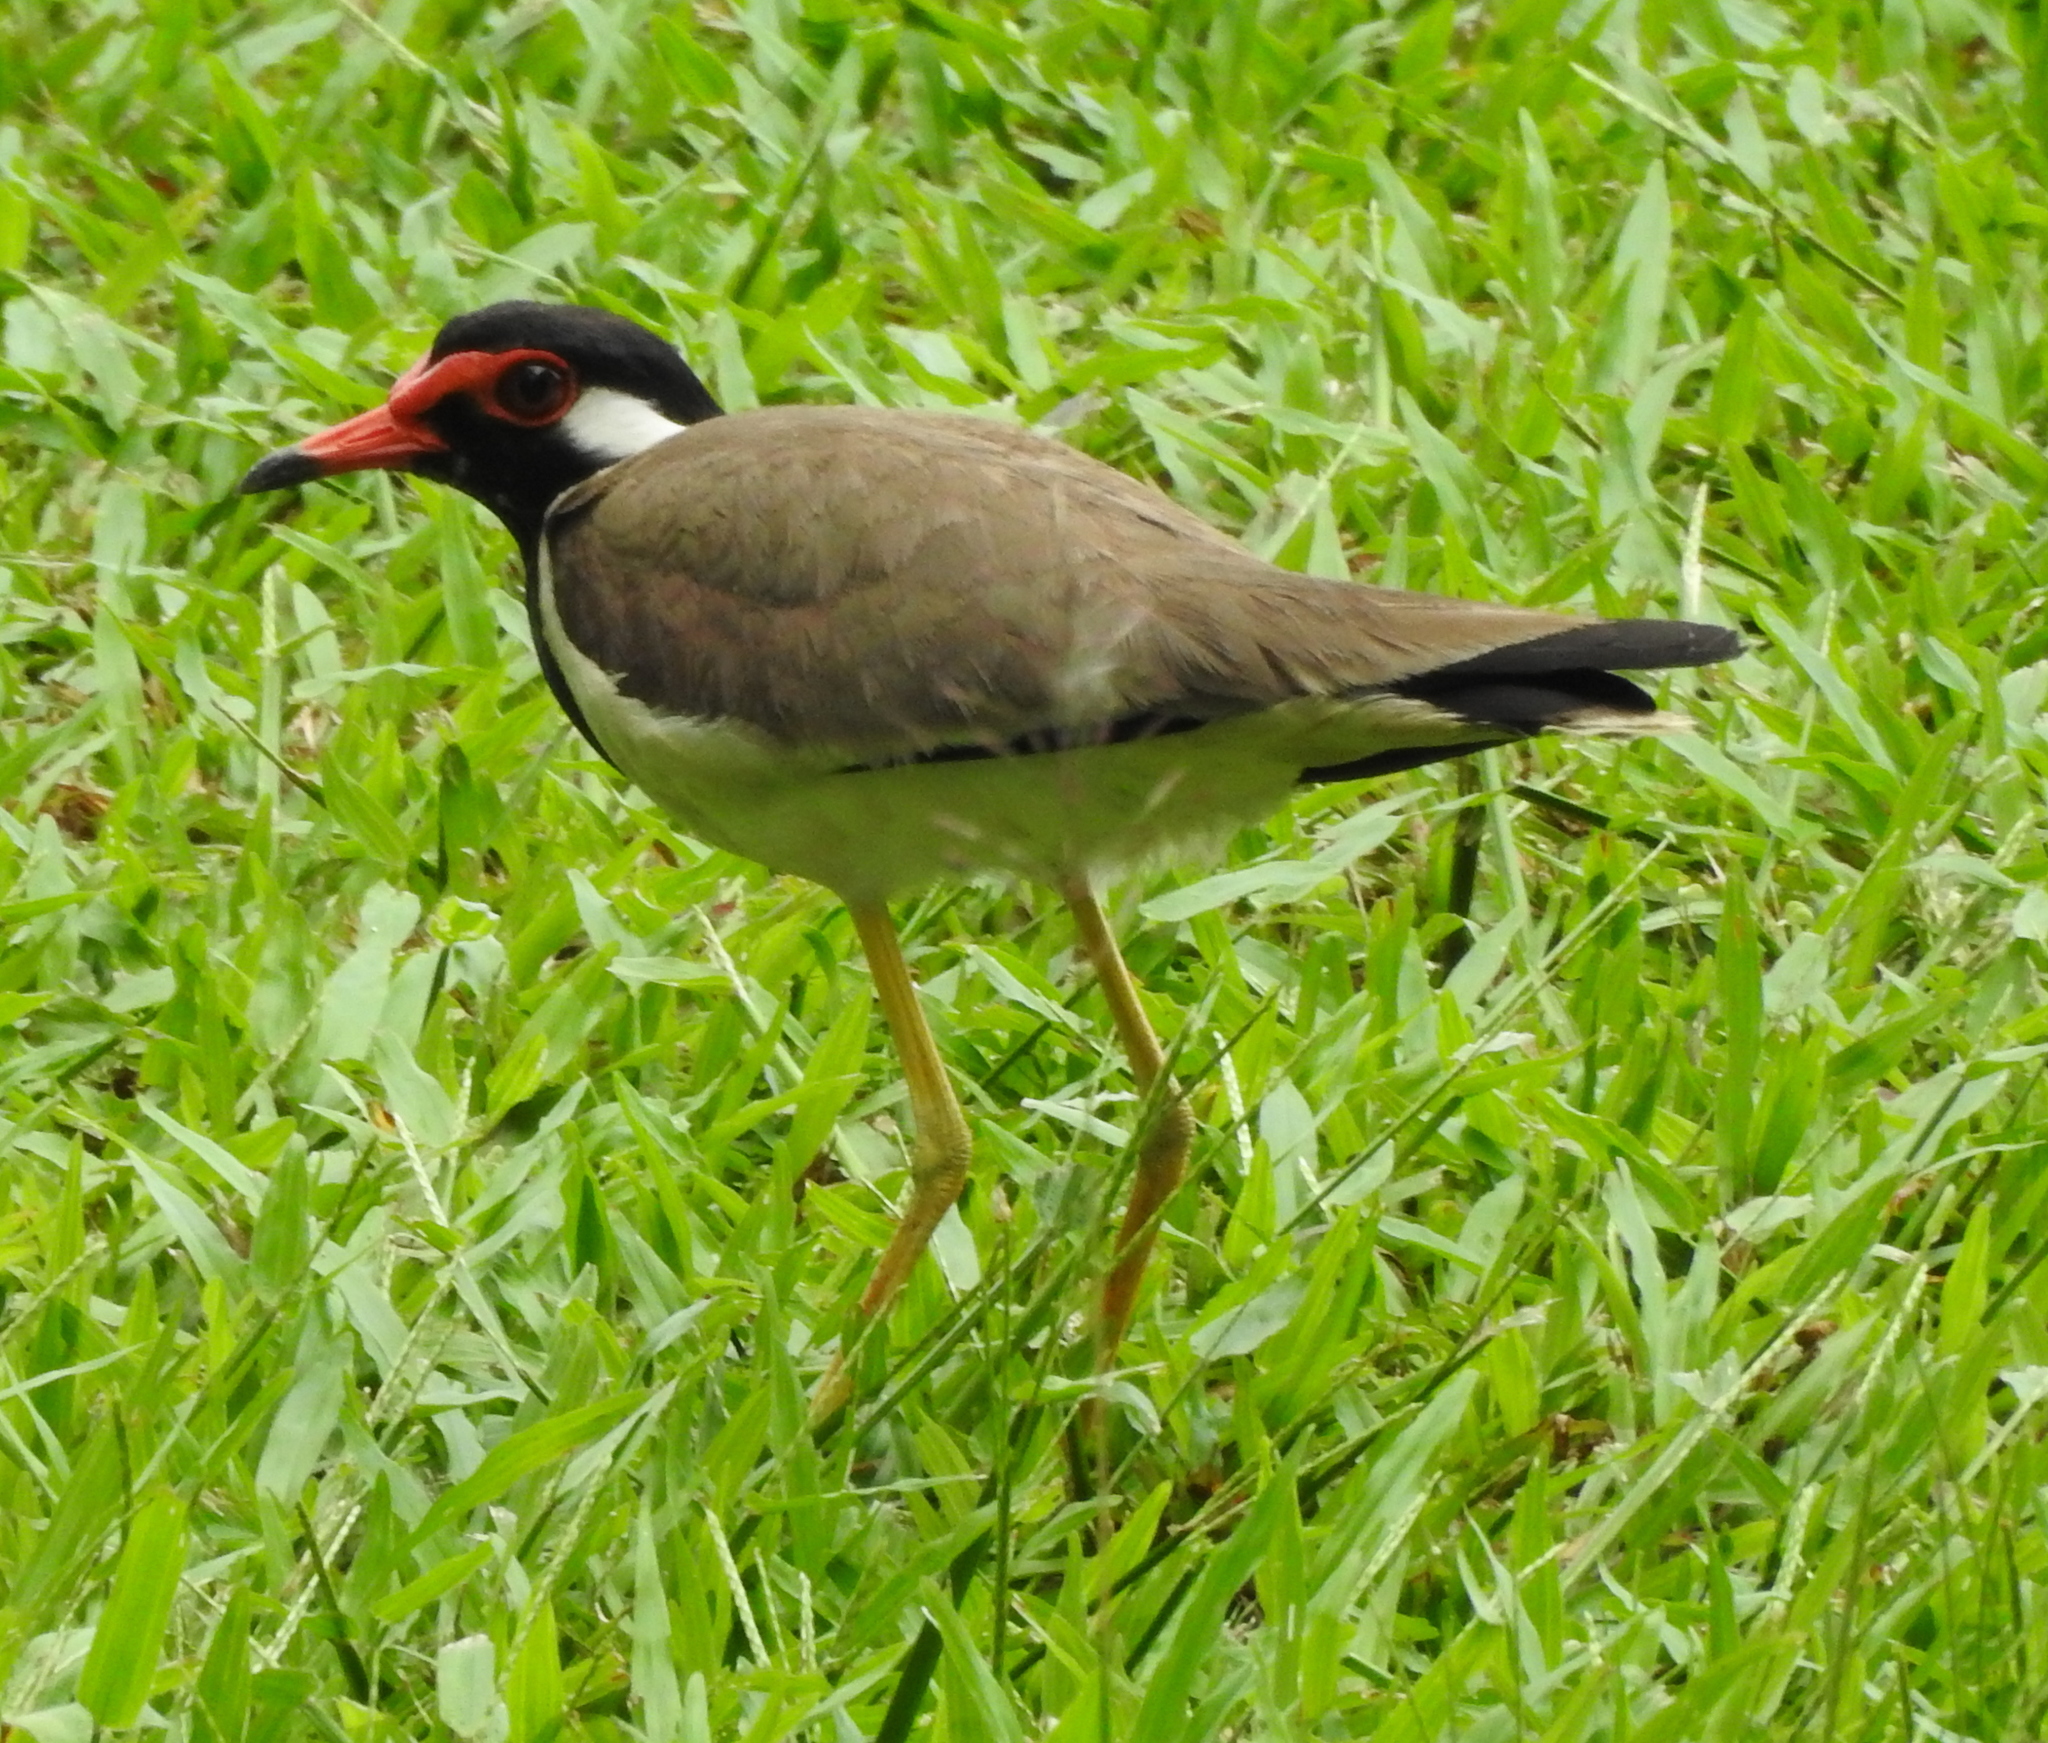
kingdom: Animalia
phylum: Chordata
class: Aves
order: Charadriiformes
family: Charadriidae
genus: Vanellus
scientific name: Vanellus indicus
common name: Red-wattled lapwing
